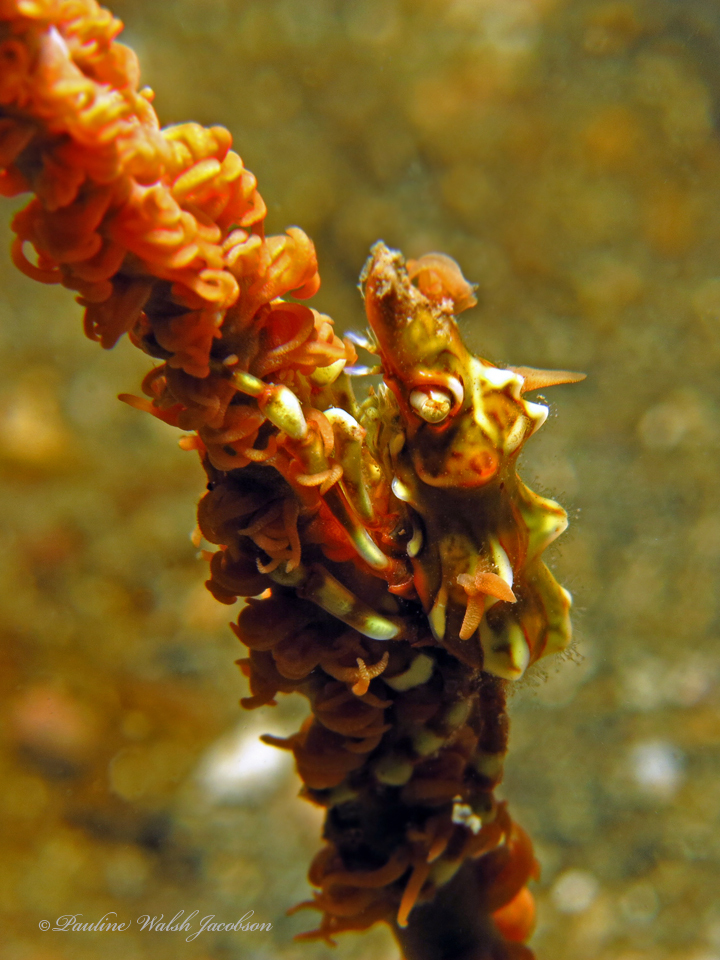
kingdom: Animalia
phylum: Arthropoda
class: Malacostraca
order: Decapoda
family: Epialtidae
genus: Xenocarcinus
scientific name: Xenocarcinus tuberculatus
